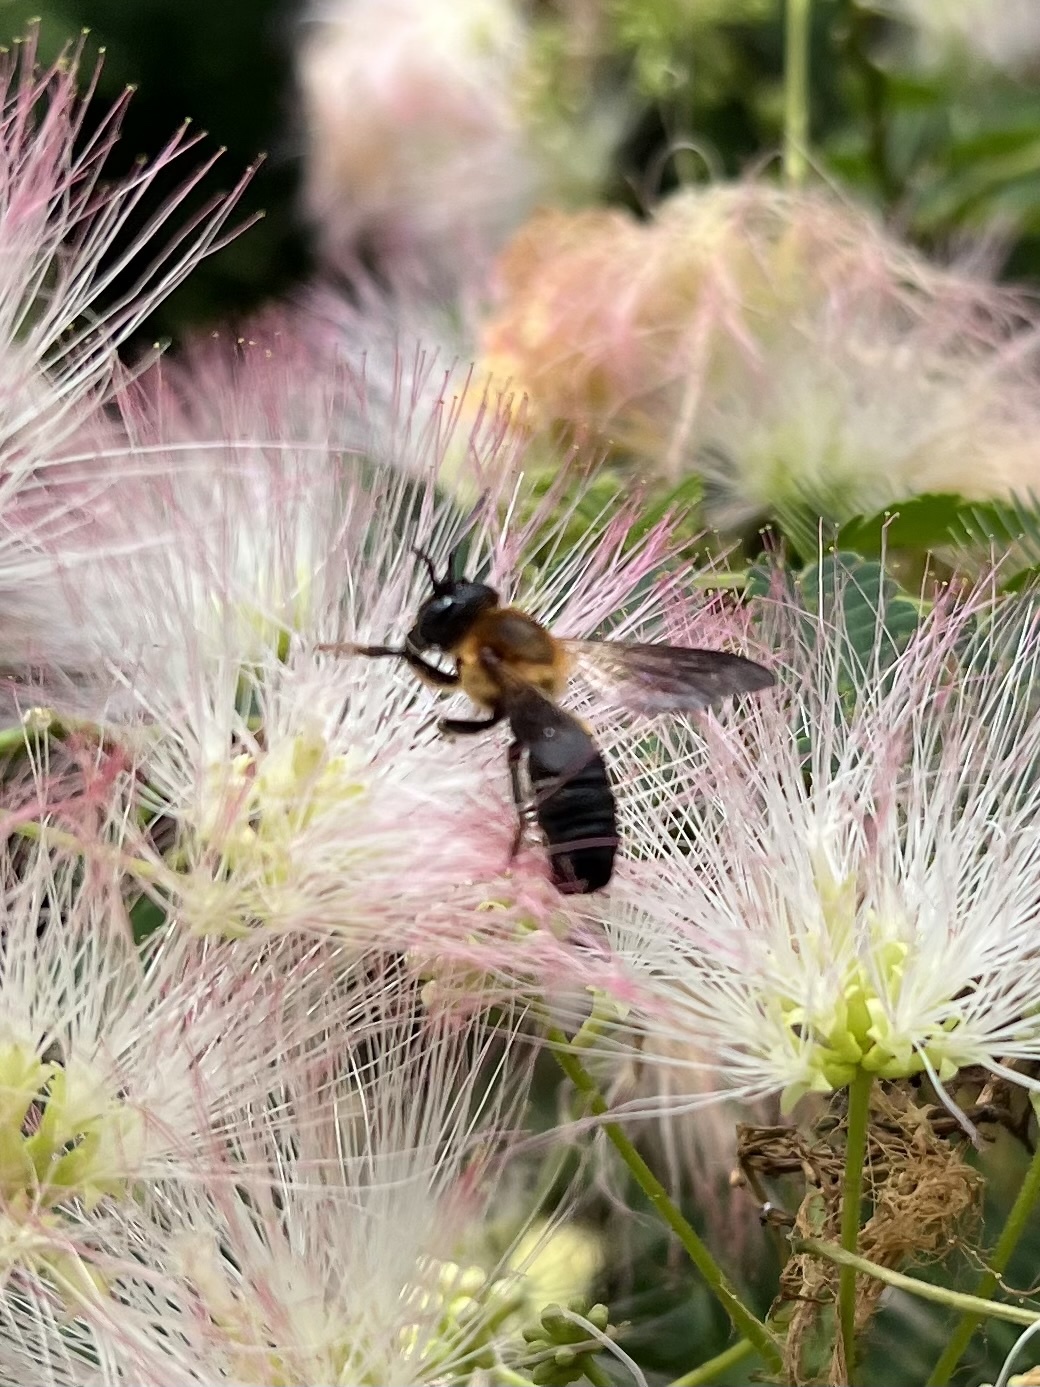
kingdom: Animalia
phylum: Arthropoda
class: Insecta
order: Hymenoptera
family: Megachilidae
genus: Megachile
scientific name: Megachile sculpturalis
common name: Sculptured resin bee
